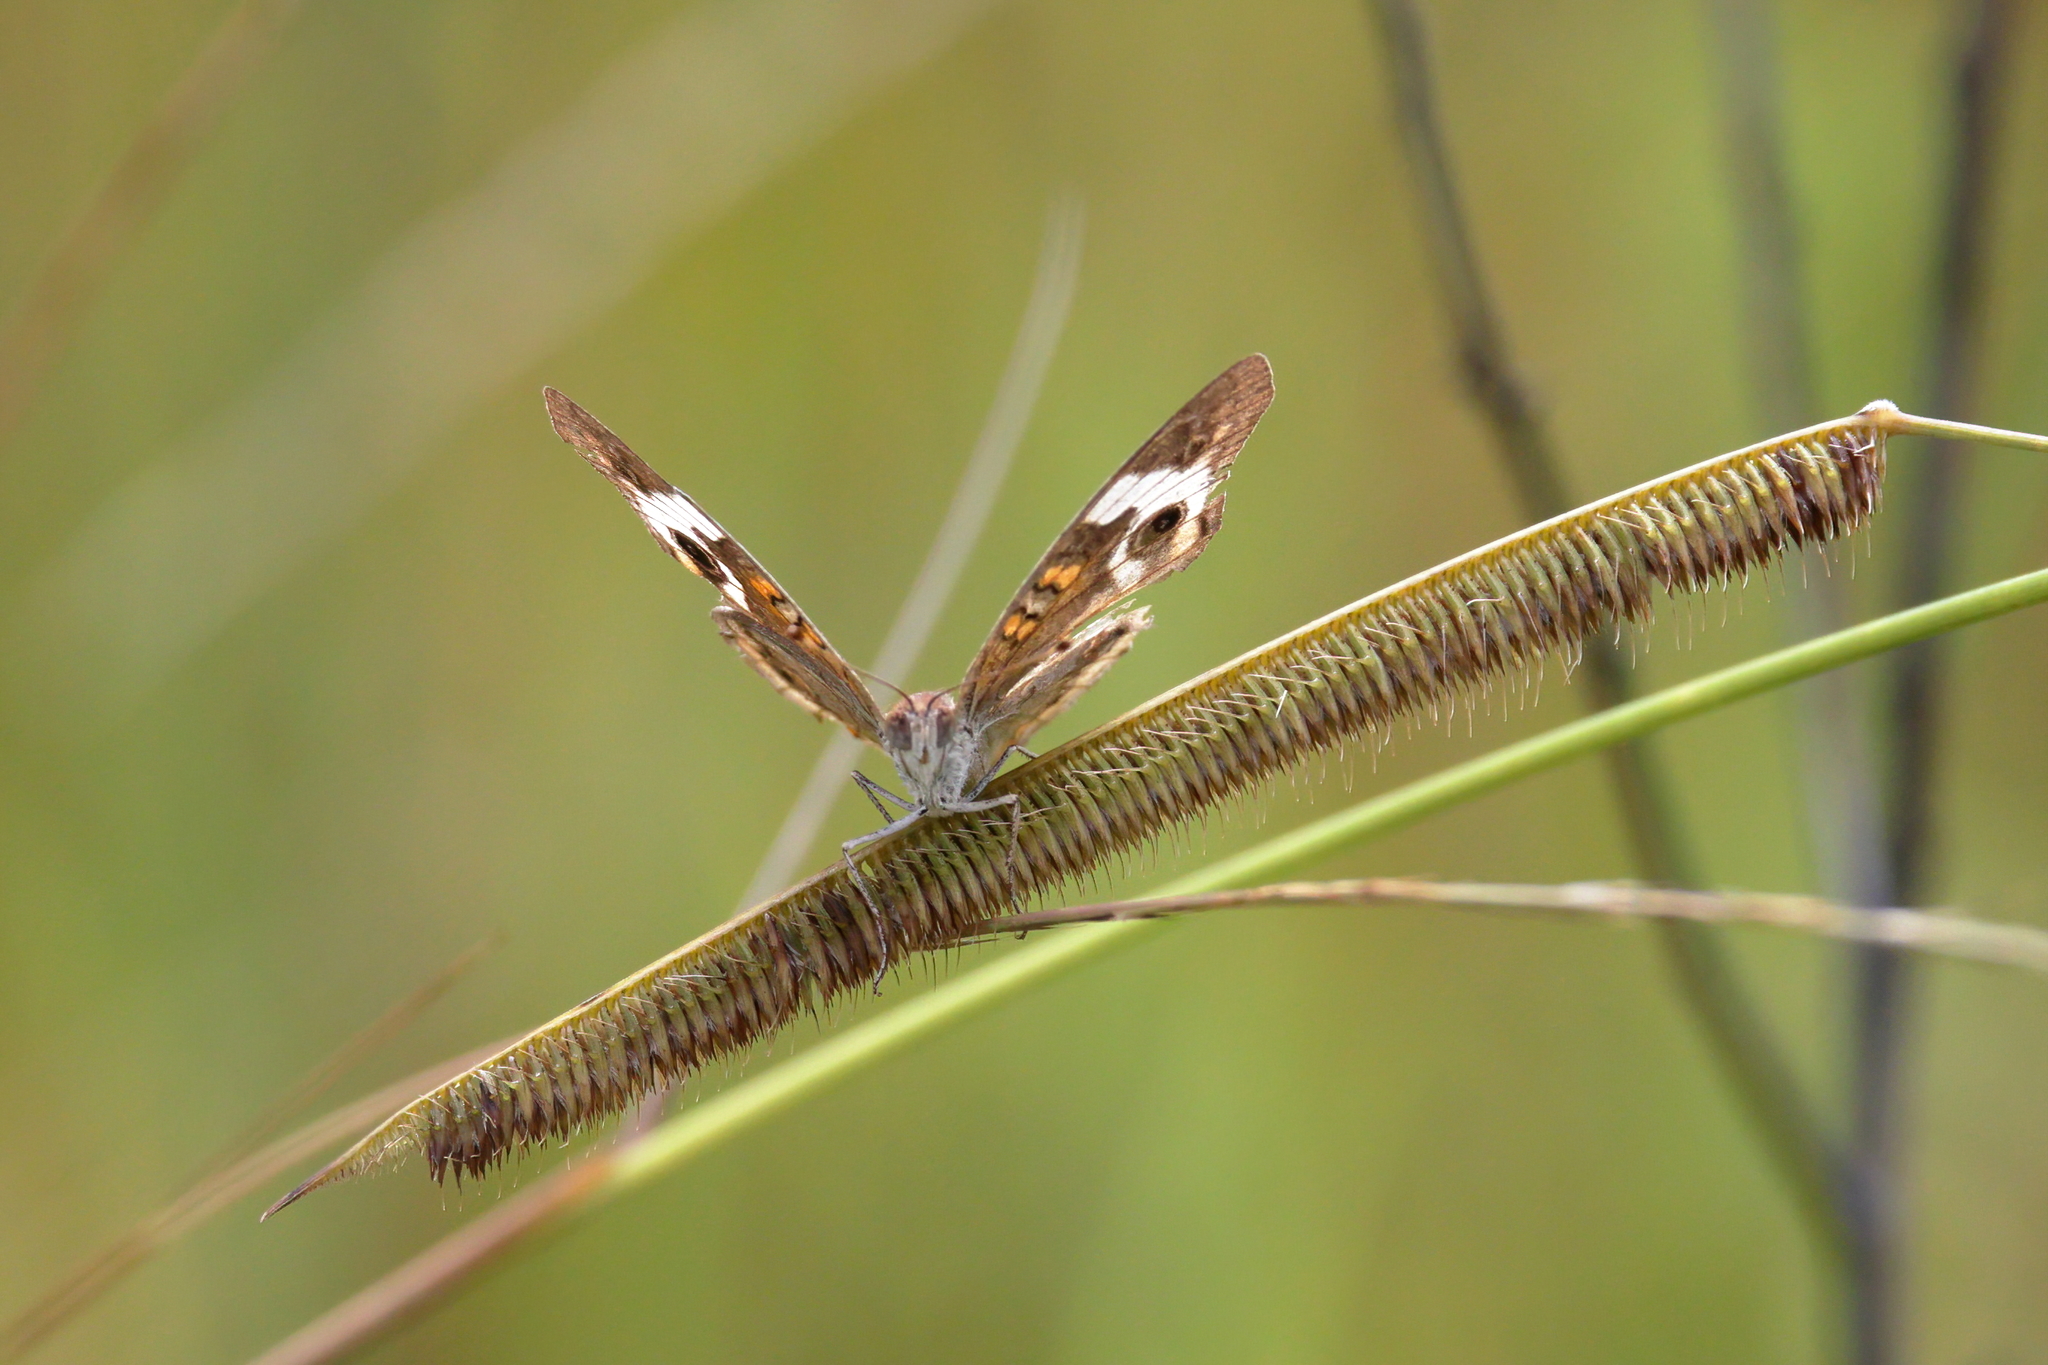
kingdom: Animalia
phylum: Arthropoda
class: Insecta
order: Lepidoptera
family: Nymphalidae
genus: Junonia
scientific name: Junonia coenia
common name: Common buckeye
